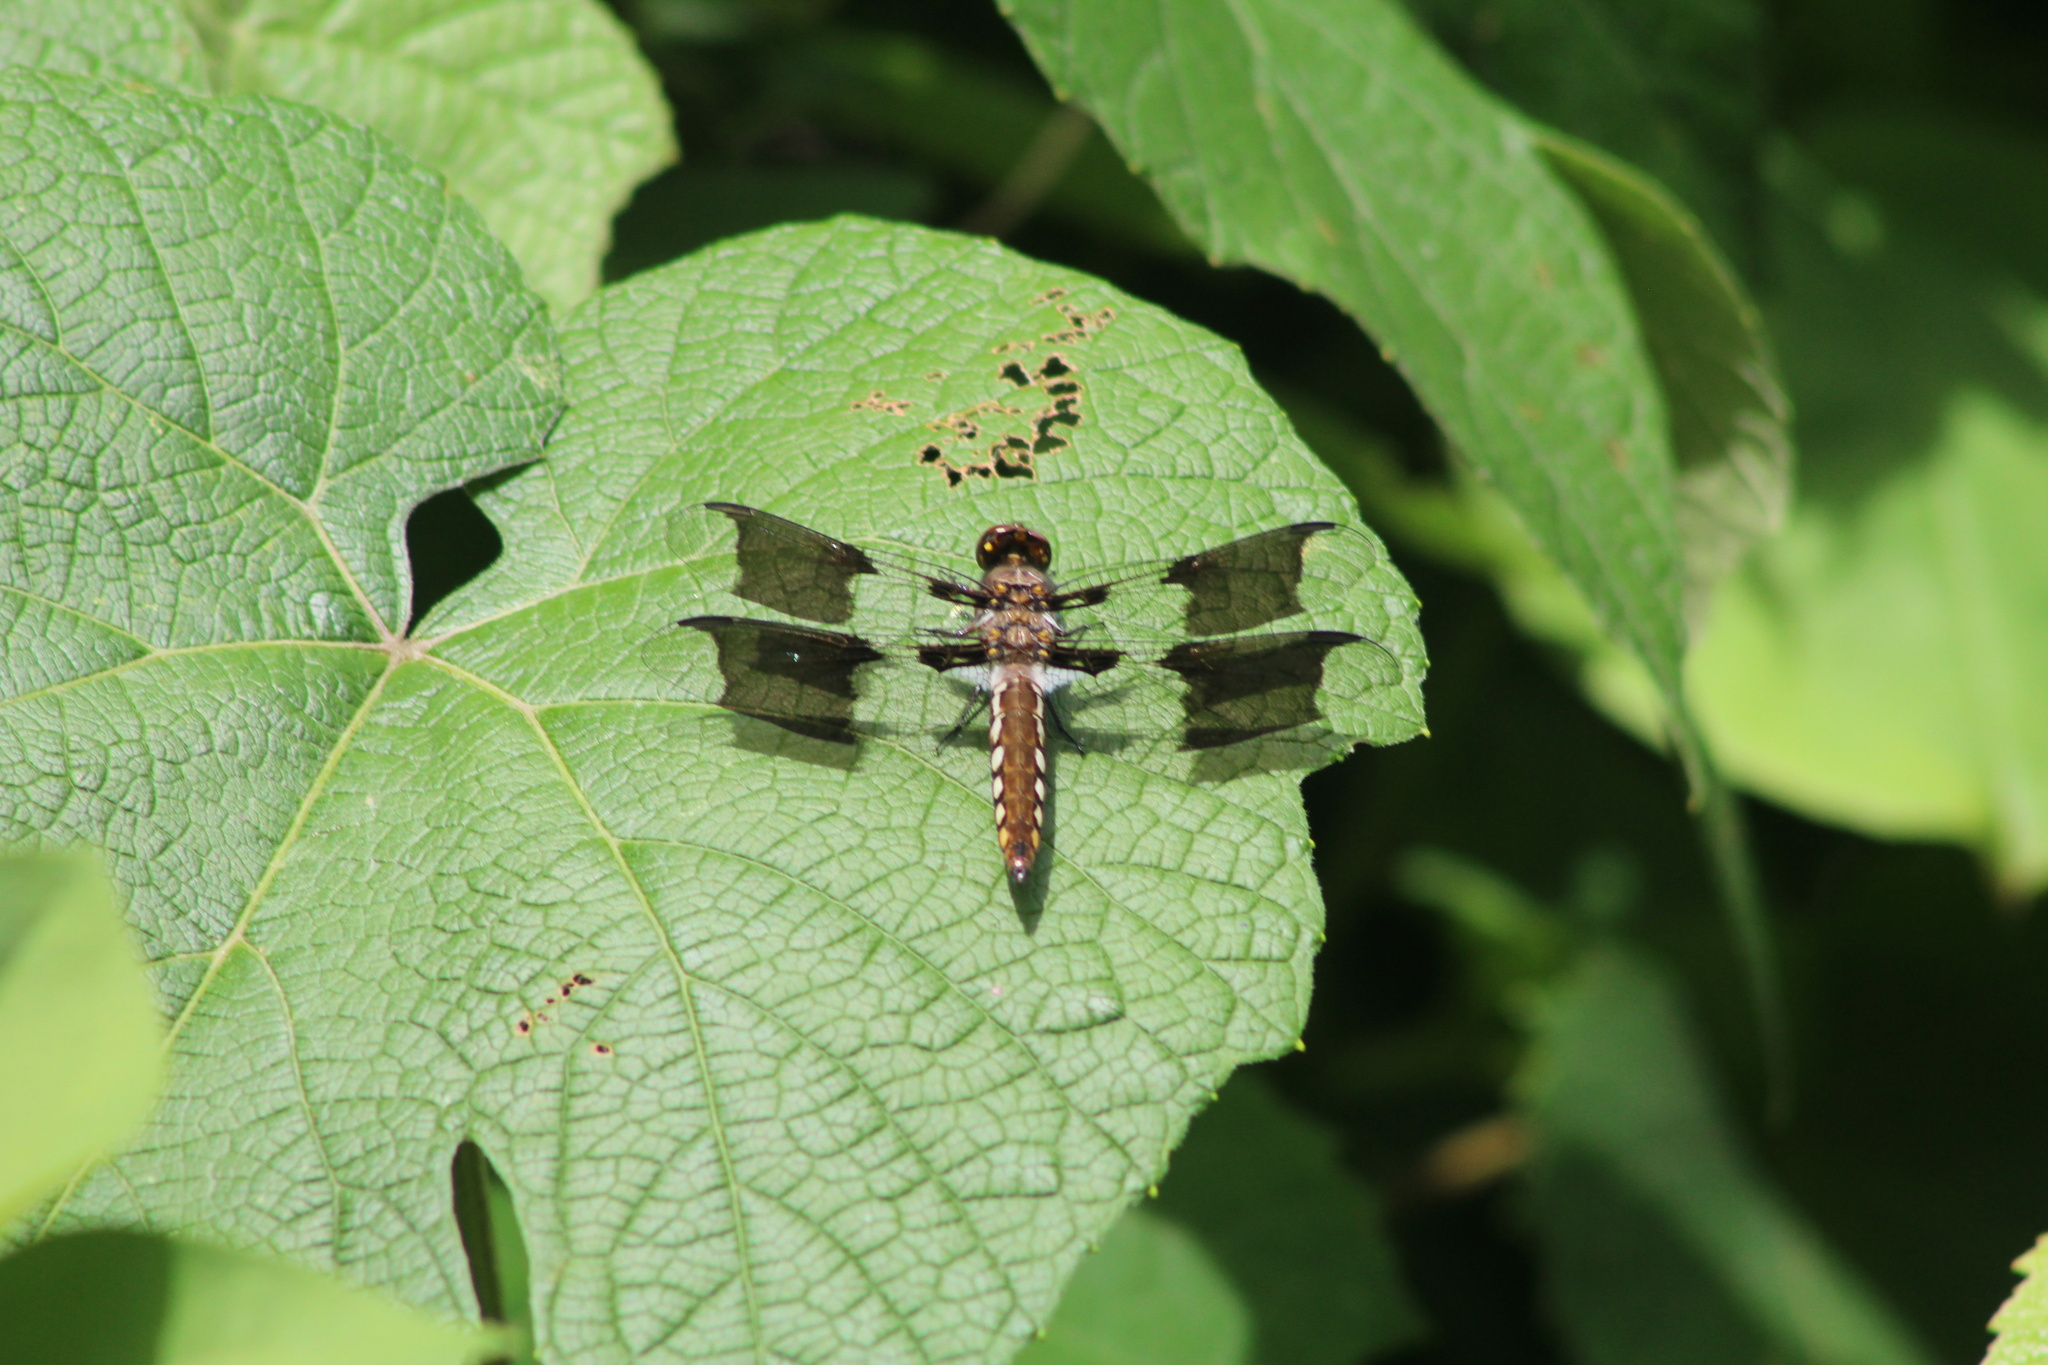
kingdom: Animalia
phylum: Arthropoda
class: Insecta
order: Odonata
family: Libellulidae
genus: Plathemis
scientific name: Plathemis lydia
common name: Common whitetail
